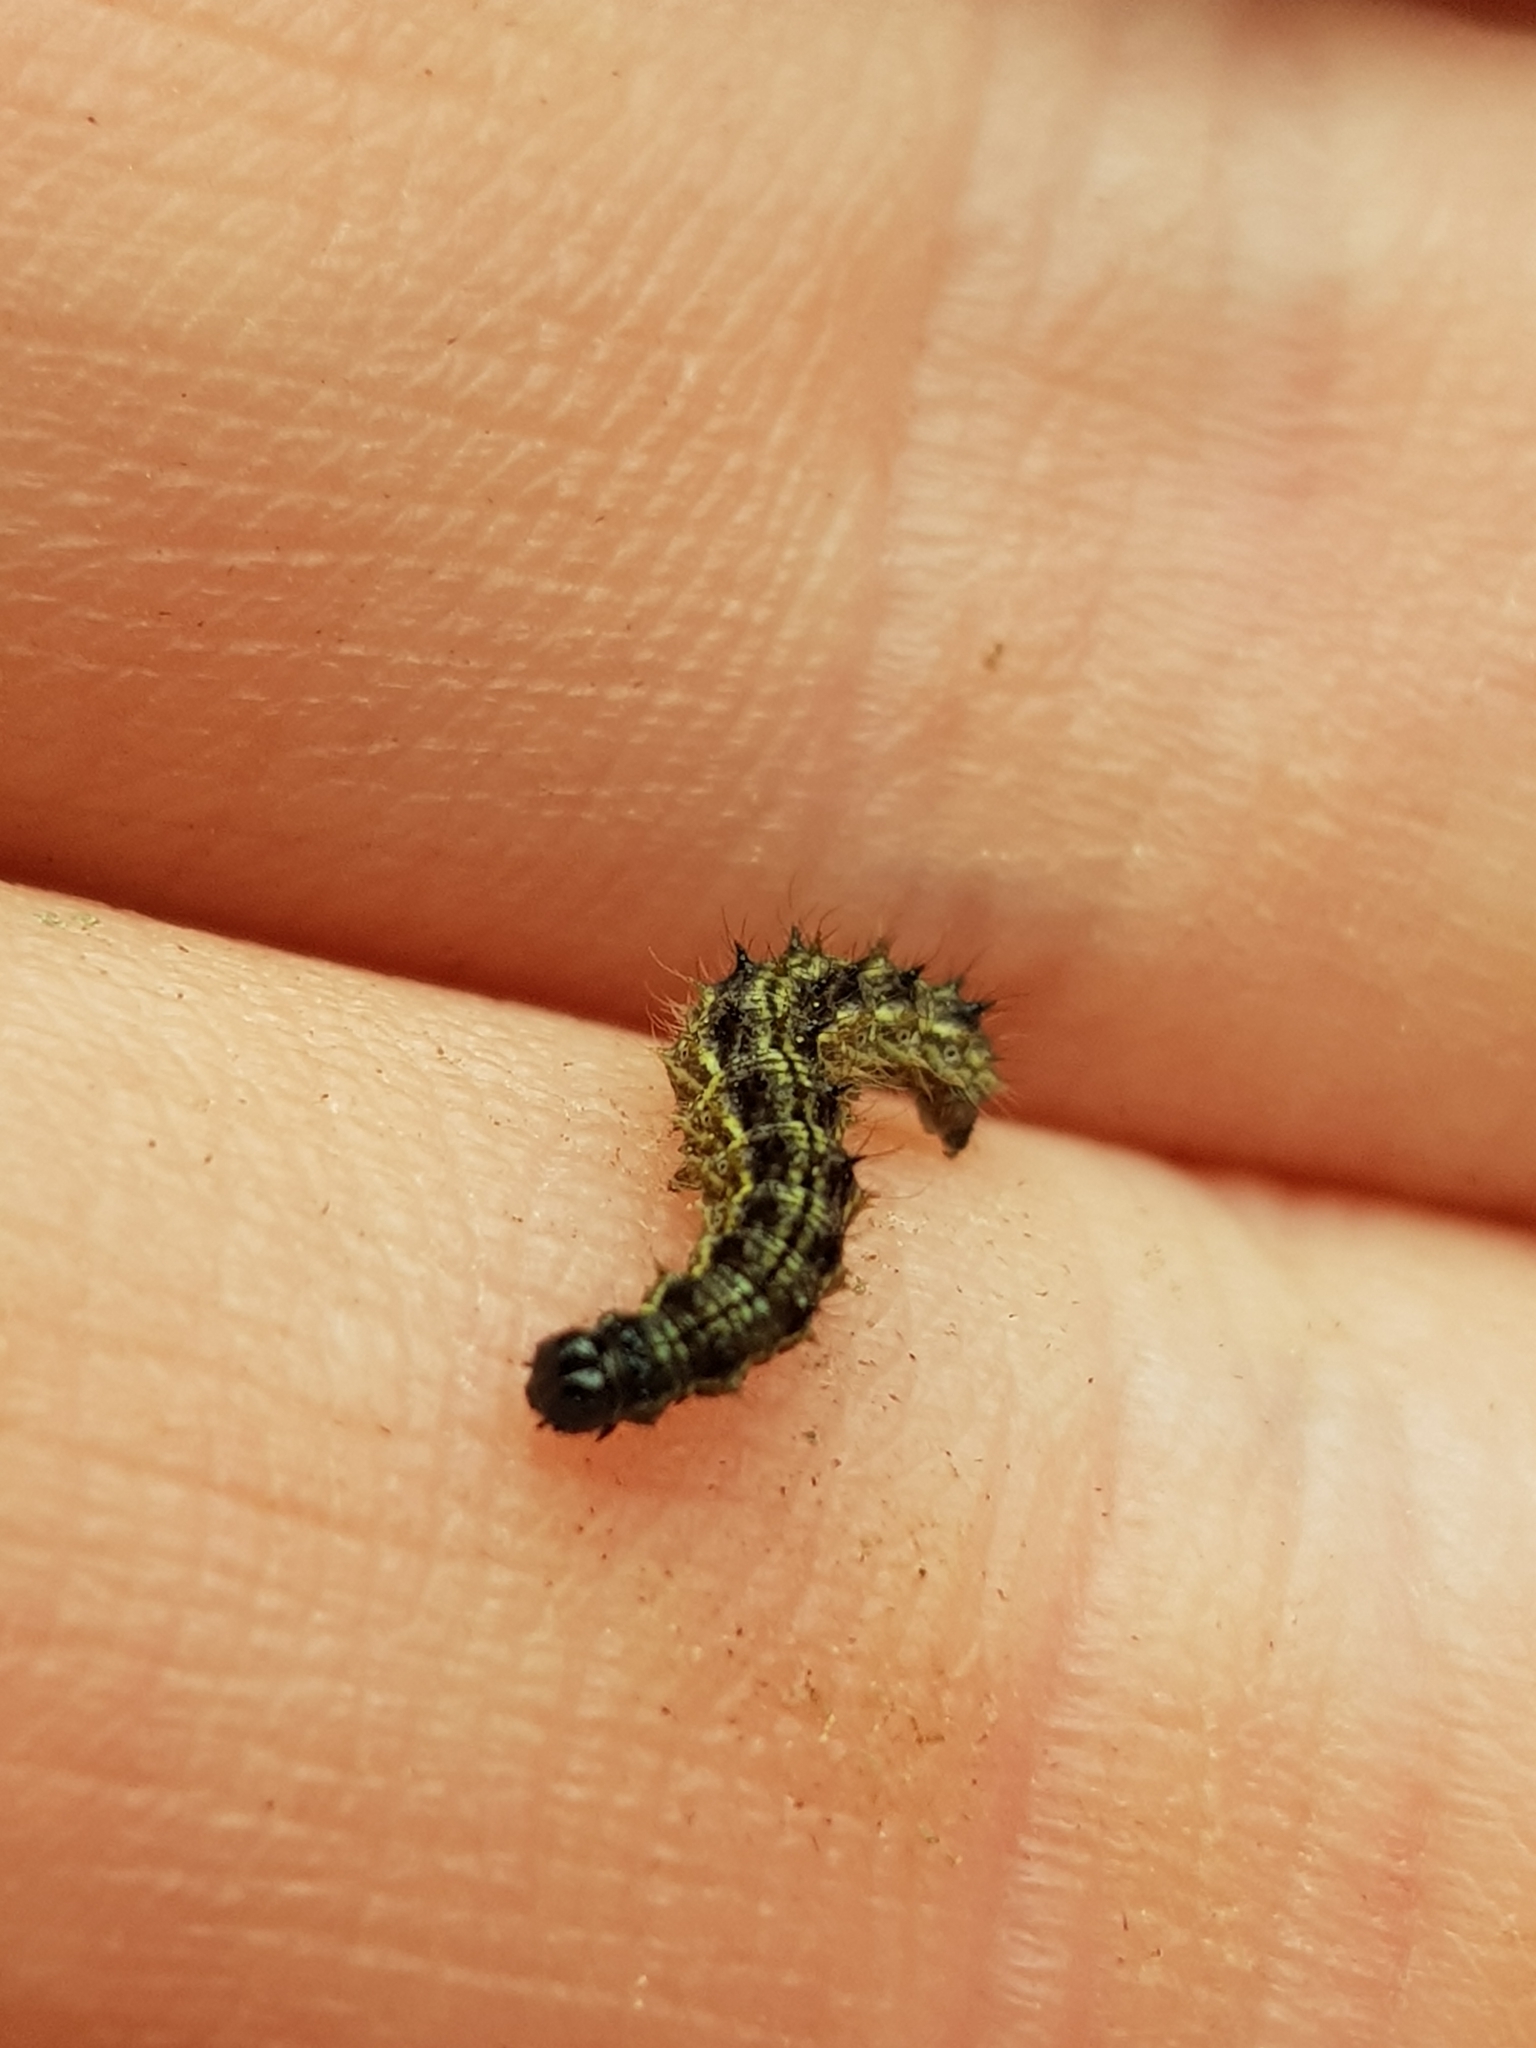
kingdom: Animalia
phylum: Arthropoda
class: Insecta
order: Lepidoptera
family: Nymphalidae
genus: Aglais
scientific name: Aglais urticae
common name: Small tortoiseshell
